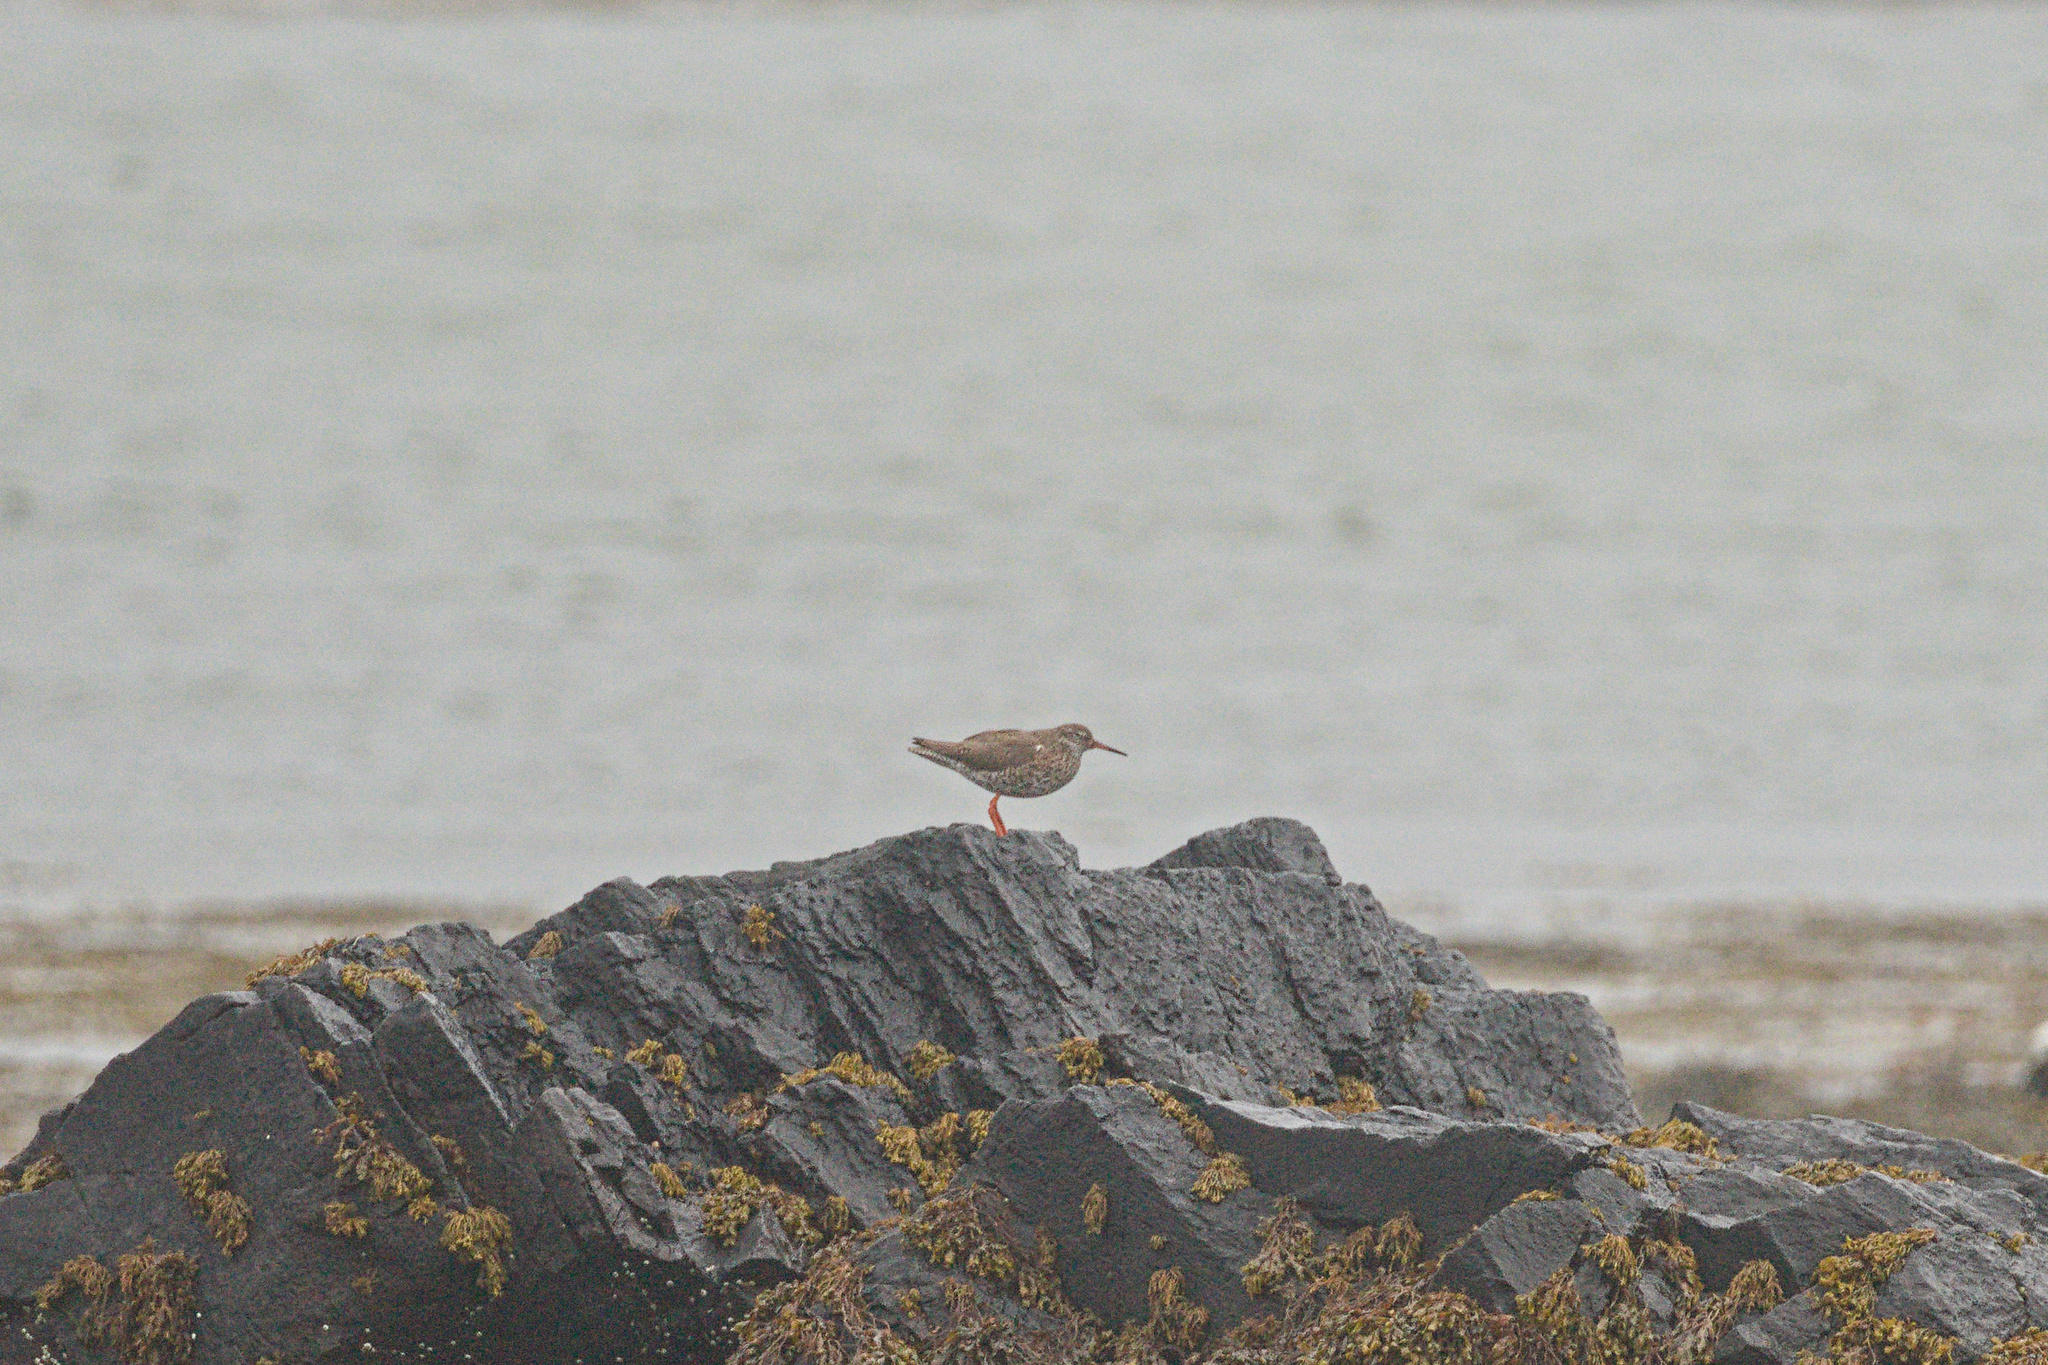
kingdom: Animalia
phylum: Chordata
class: Aves
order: Charadriiformes
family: Scolopacidae
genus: Tringa
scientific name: Tringa totanus
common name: Common redshank
